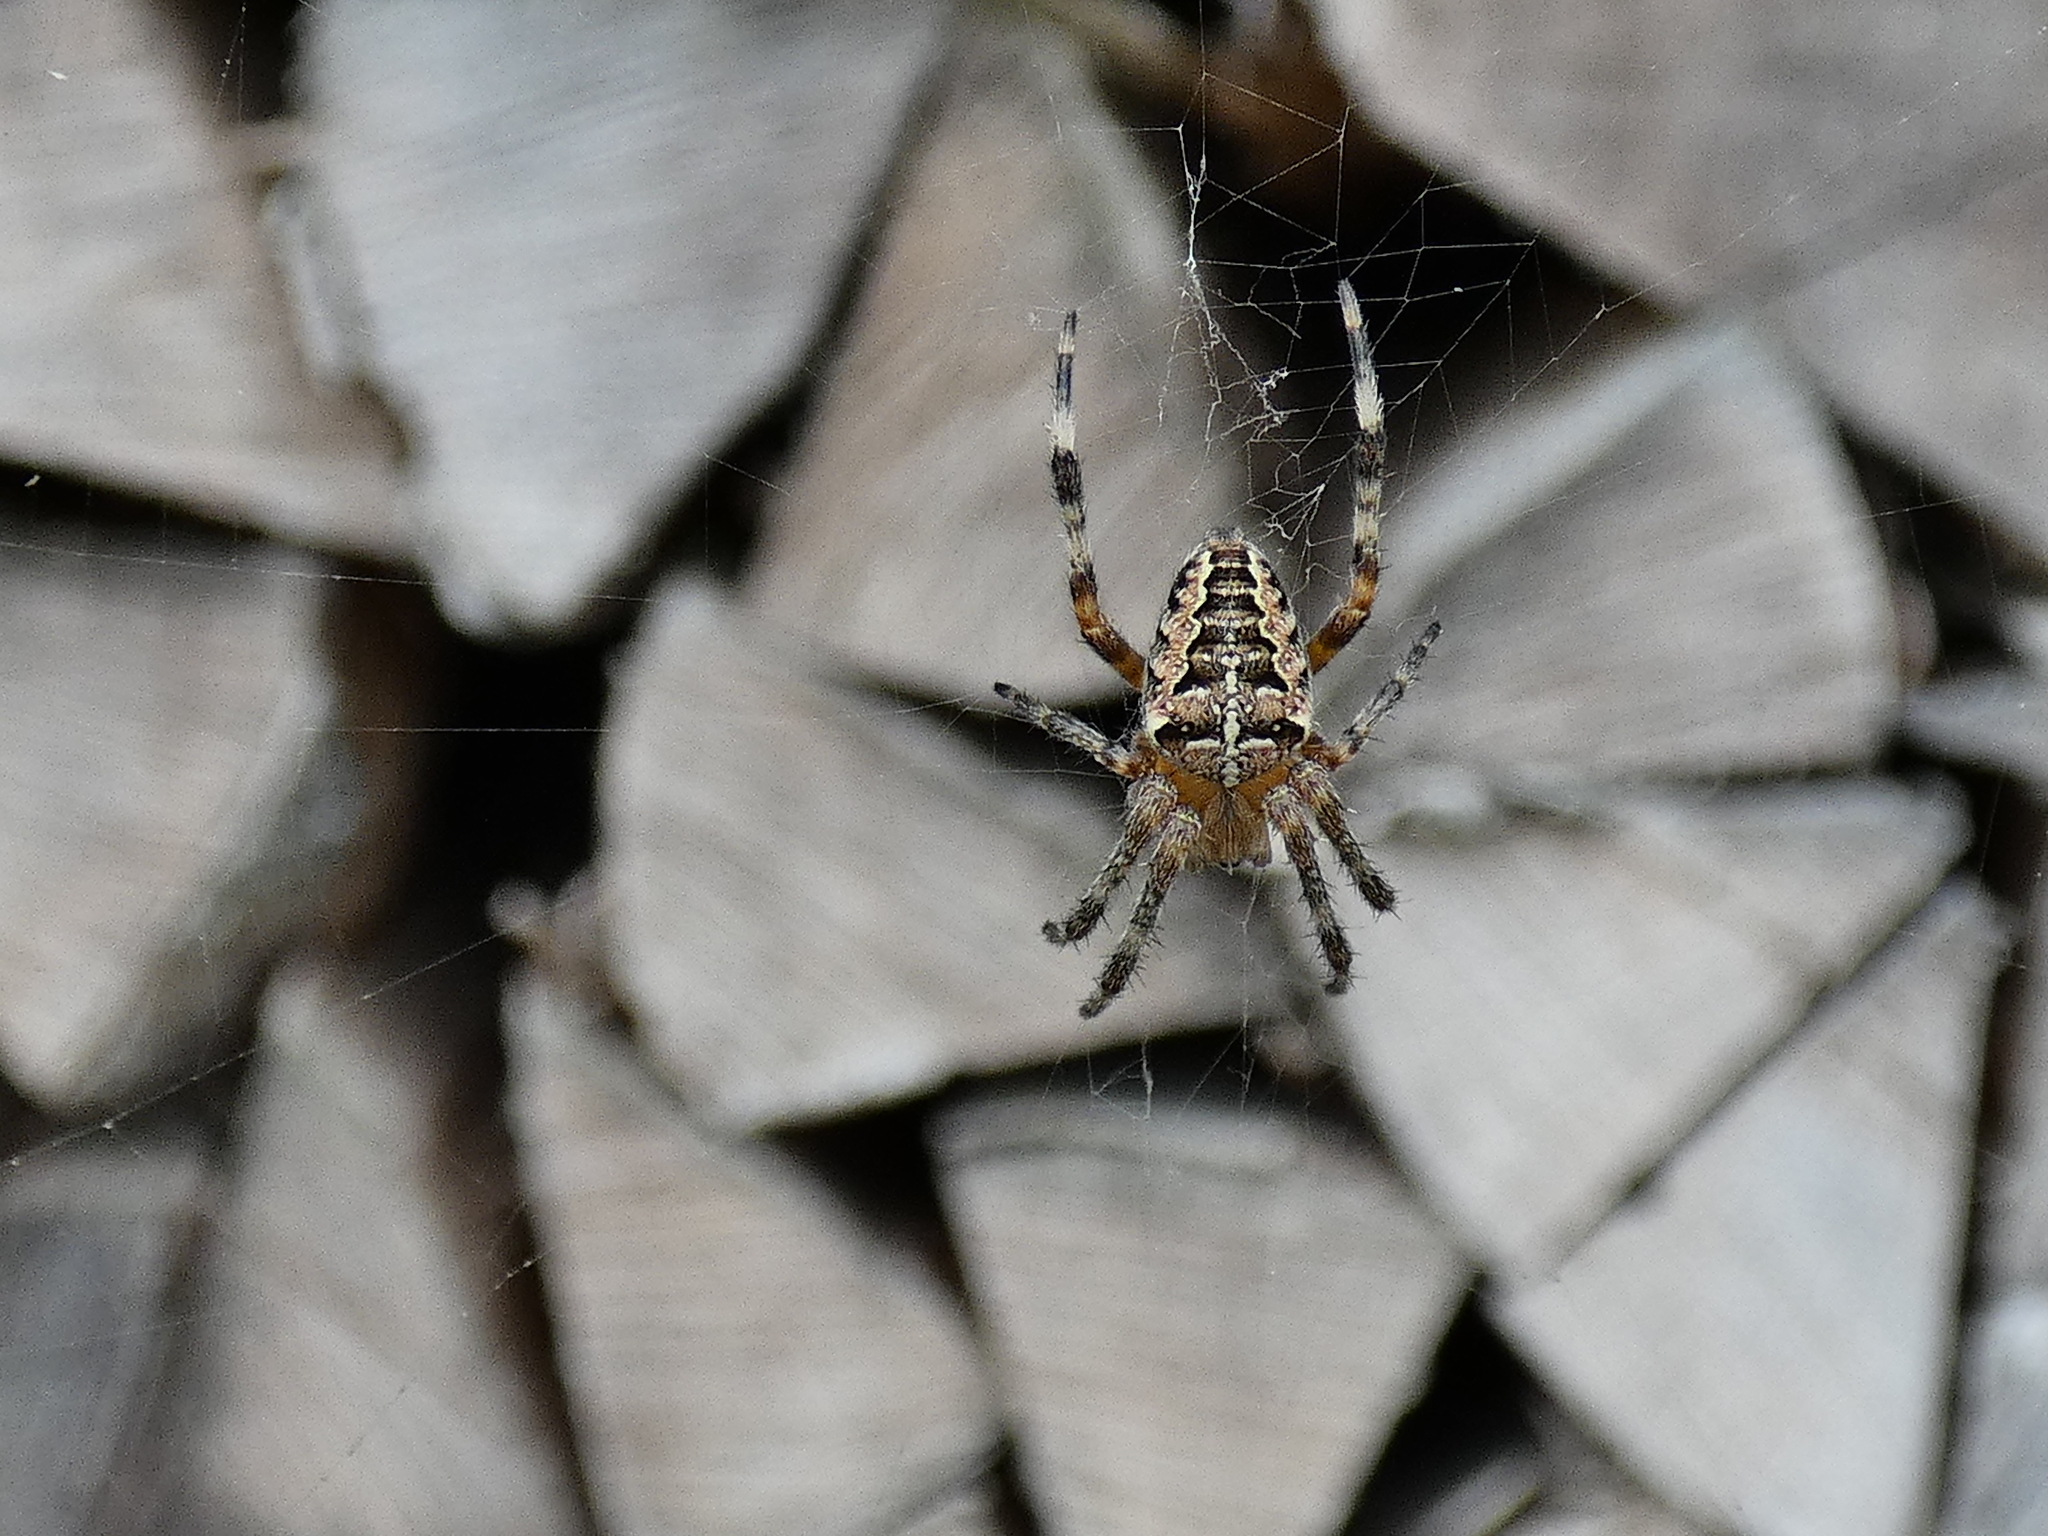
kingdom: Animalia
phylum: Arthropoda
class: Arachnida
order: Araneae
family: Araneidae
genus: Araneus
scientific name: Araneus diadematus
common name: Cross orbweaver
